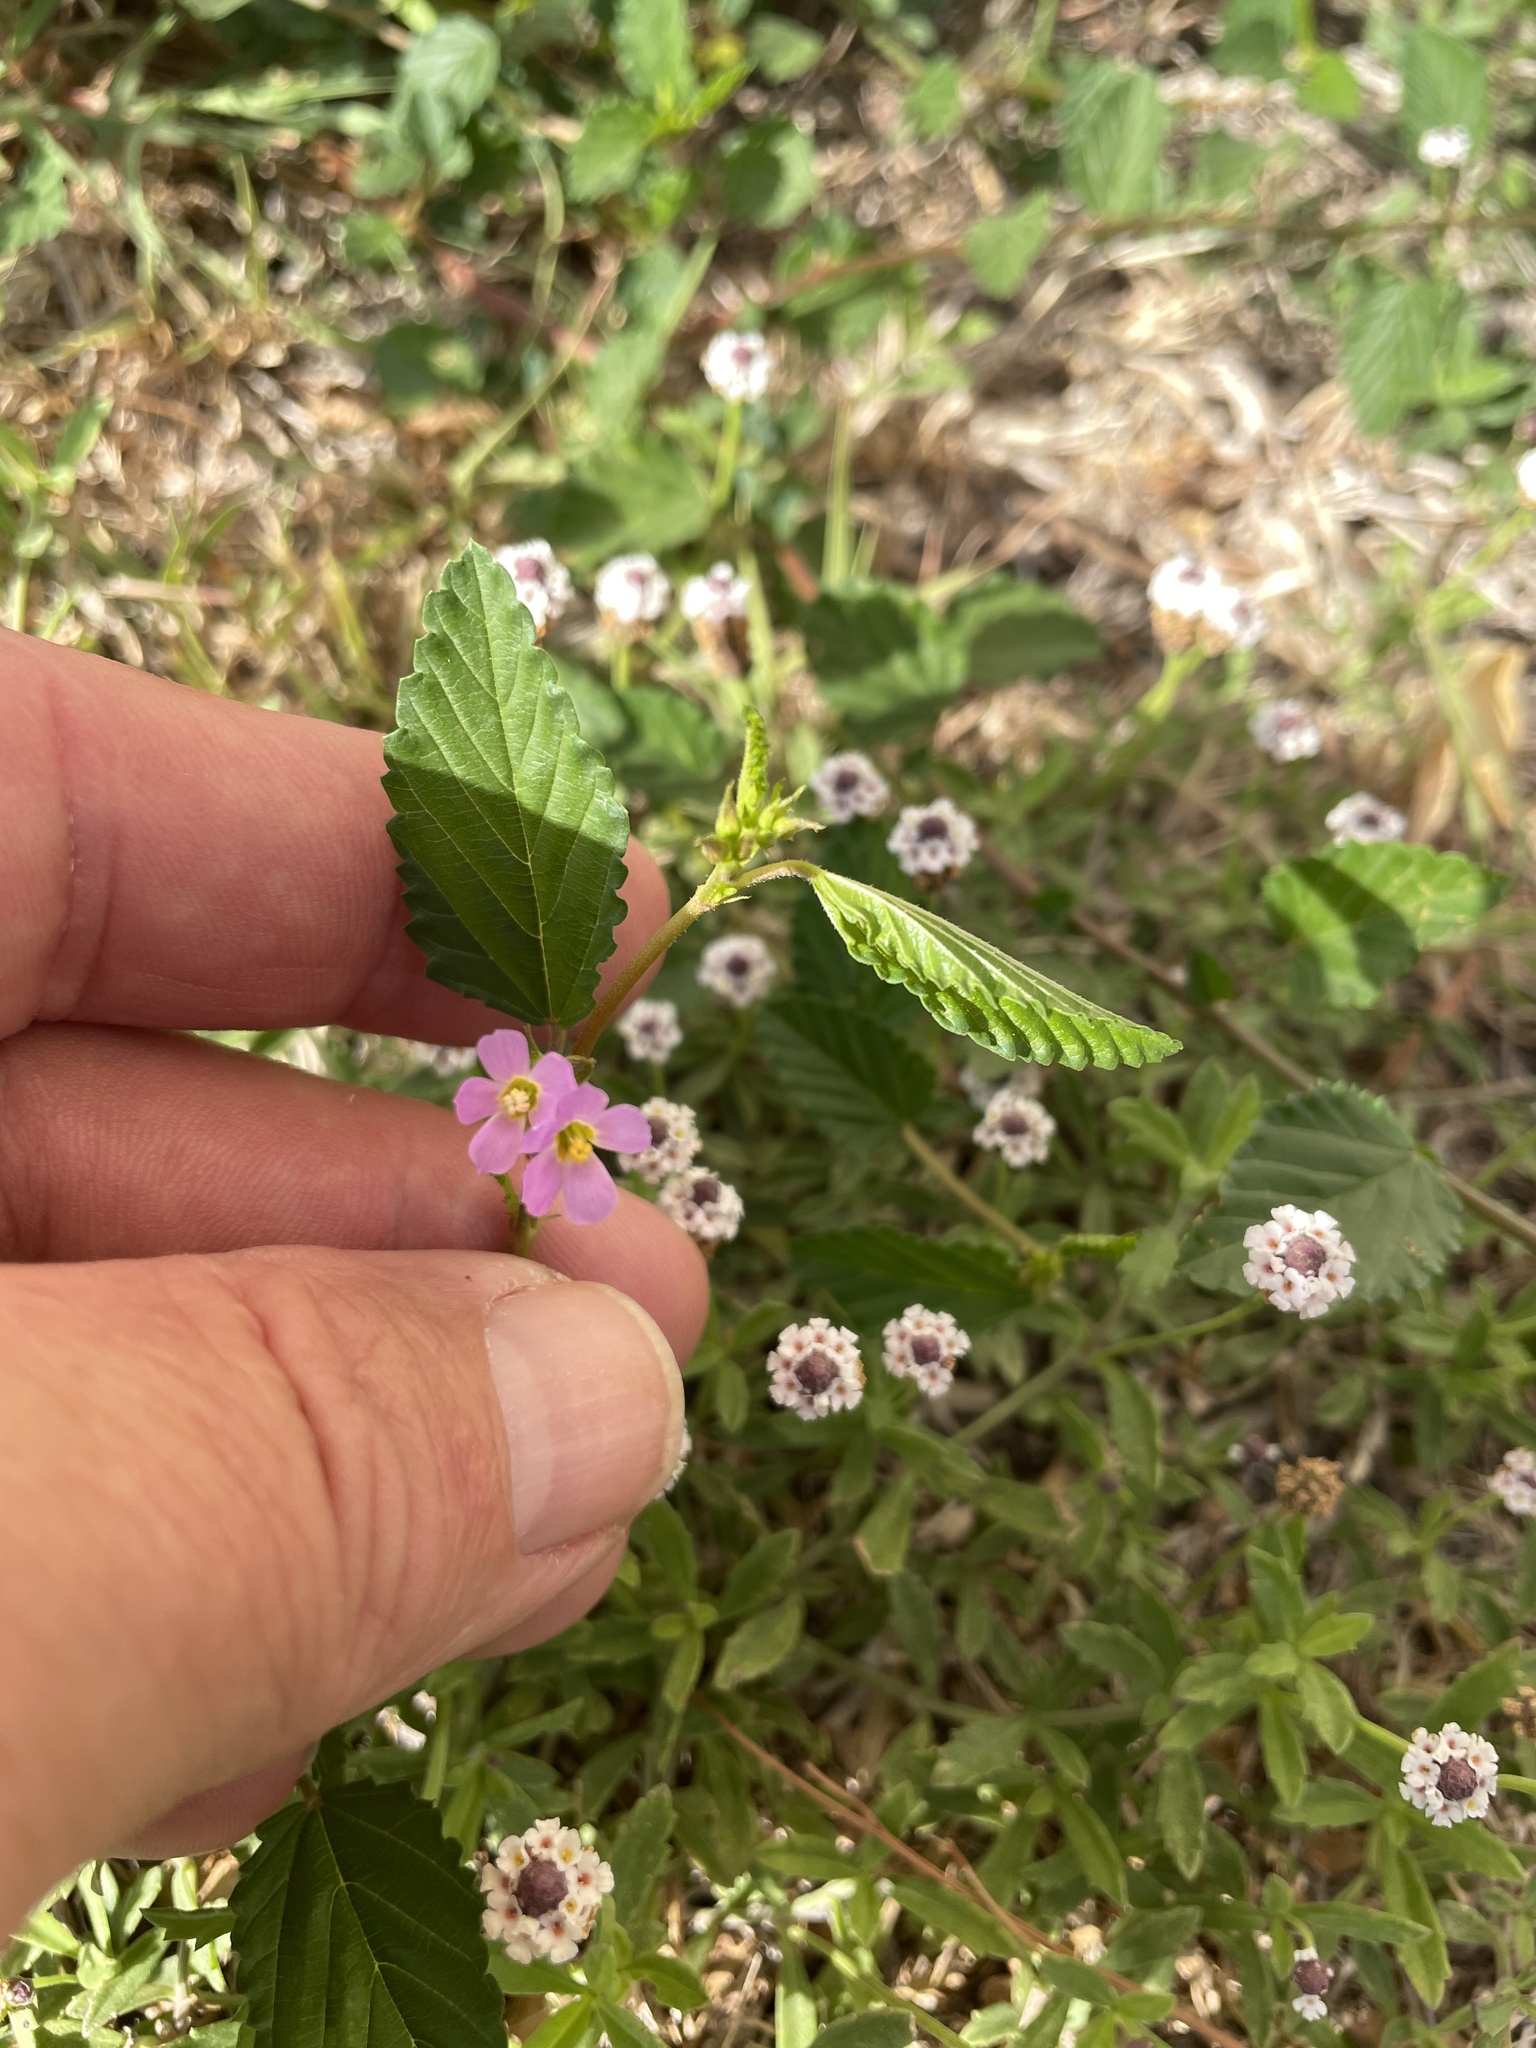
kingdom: Plantae
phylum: Tracheophyta
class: Magnoliopsida
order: Malvales
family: Malvaceae
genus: Melochia
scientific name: Melochia pyramidata
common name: Pyramidflower
